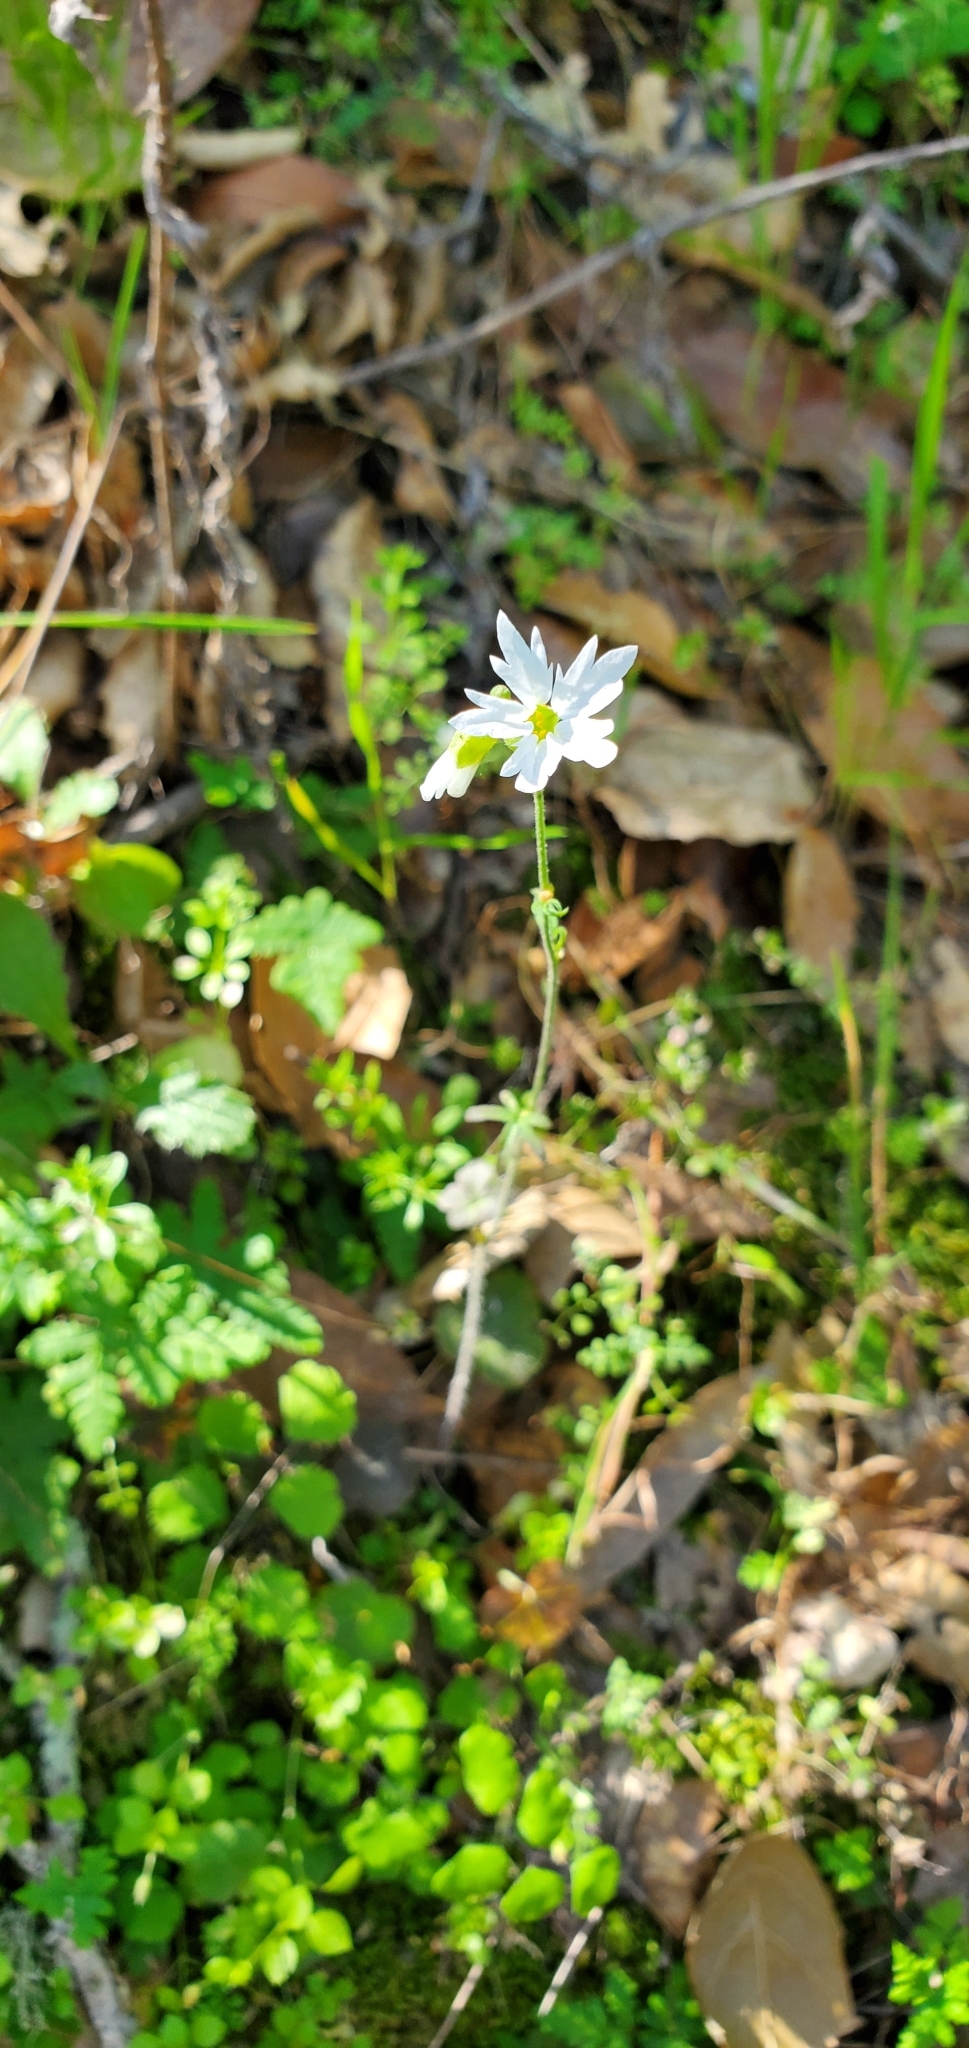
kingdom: Plantae
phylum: Tracheophyta
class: Magnoliopsida
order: Saxifragales
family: Saxifragaceae
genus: Lithophragma
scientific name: Lithophragma heterophyllum
